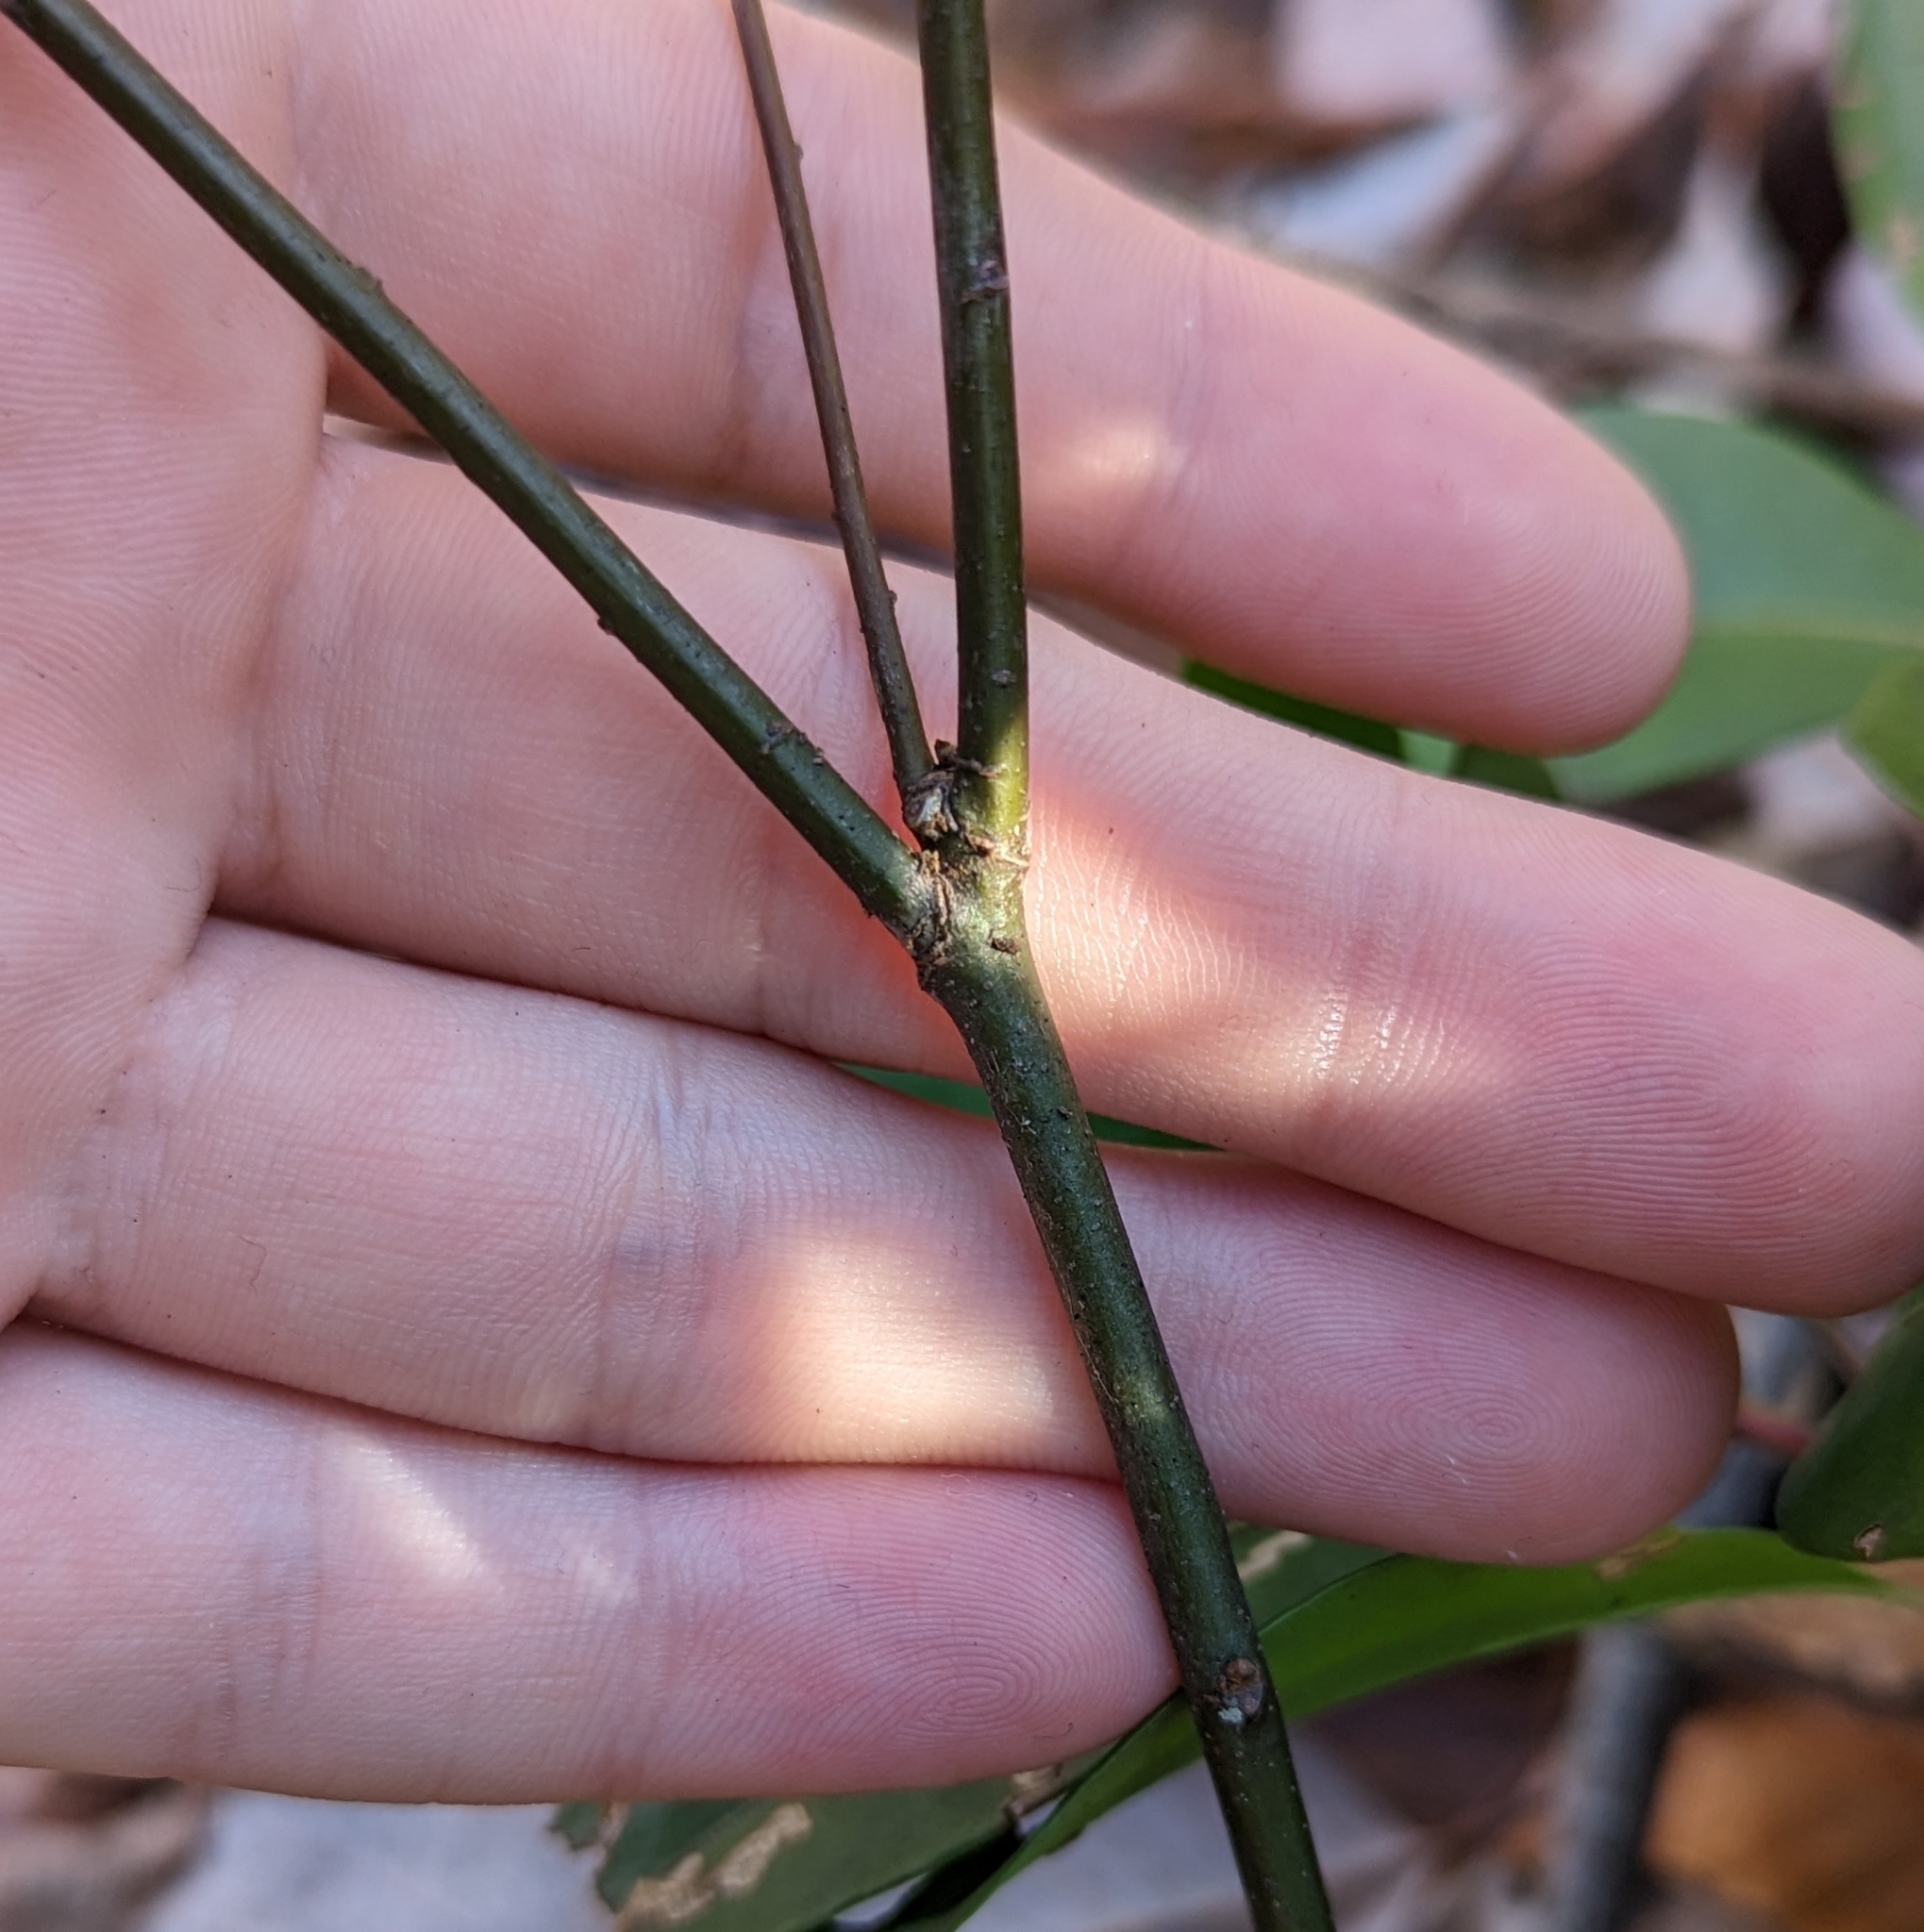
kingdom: Plantae
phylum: Tracheophyta
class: Magnoliopsida
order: Fagales
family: Fagaceae
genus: Quercus
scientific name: Quercus phellos
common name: Willow oak
